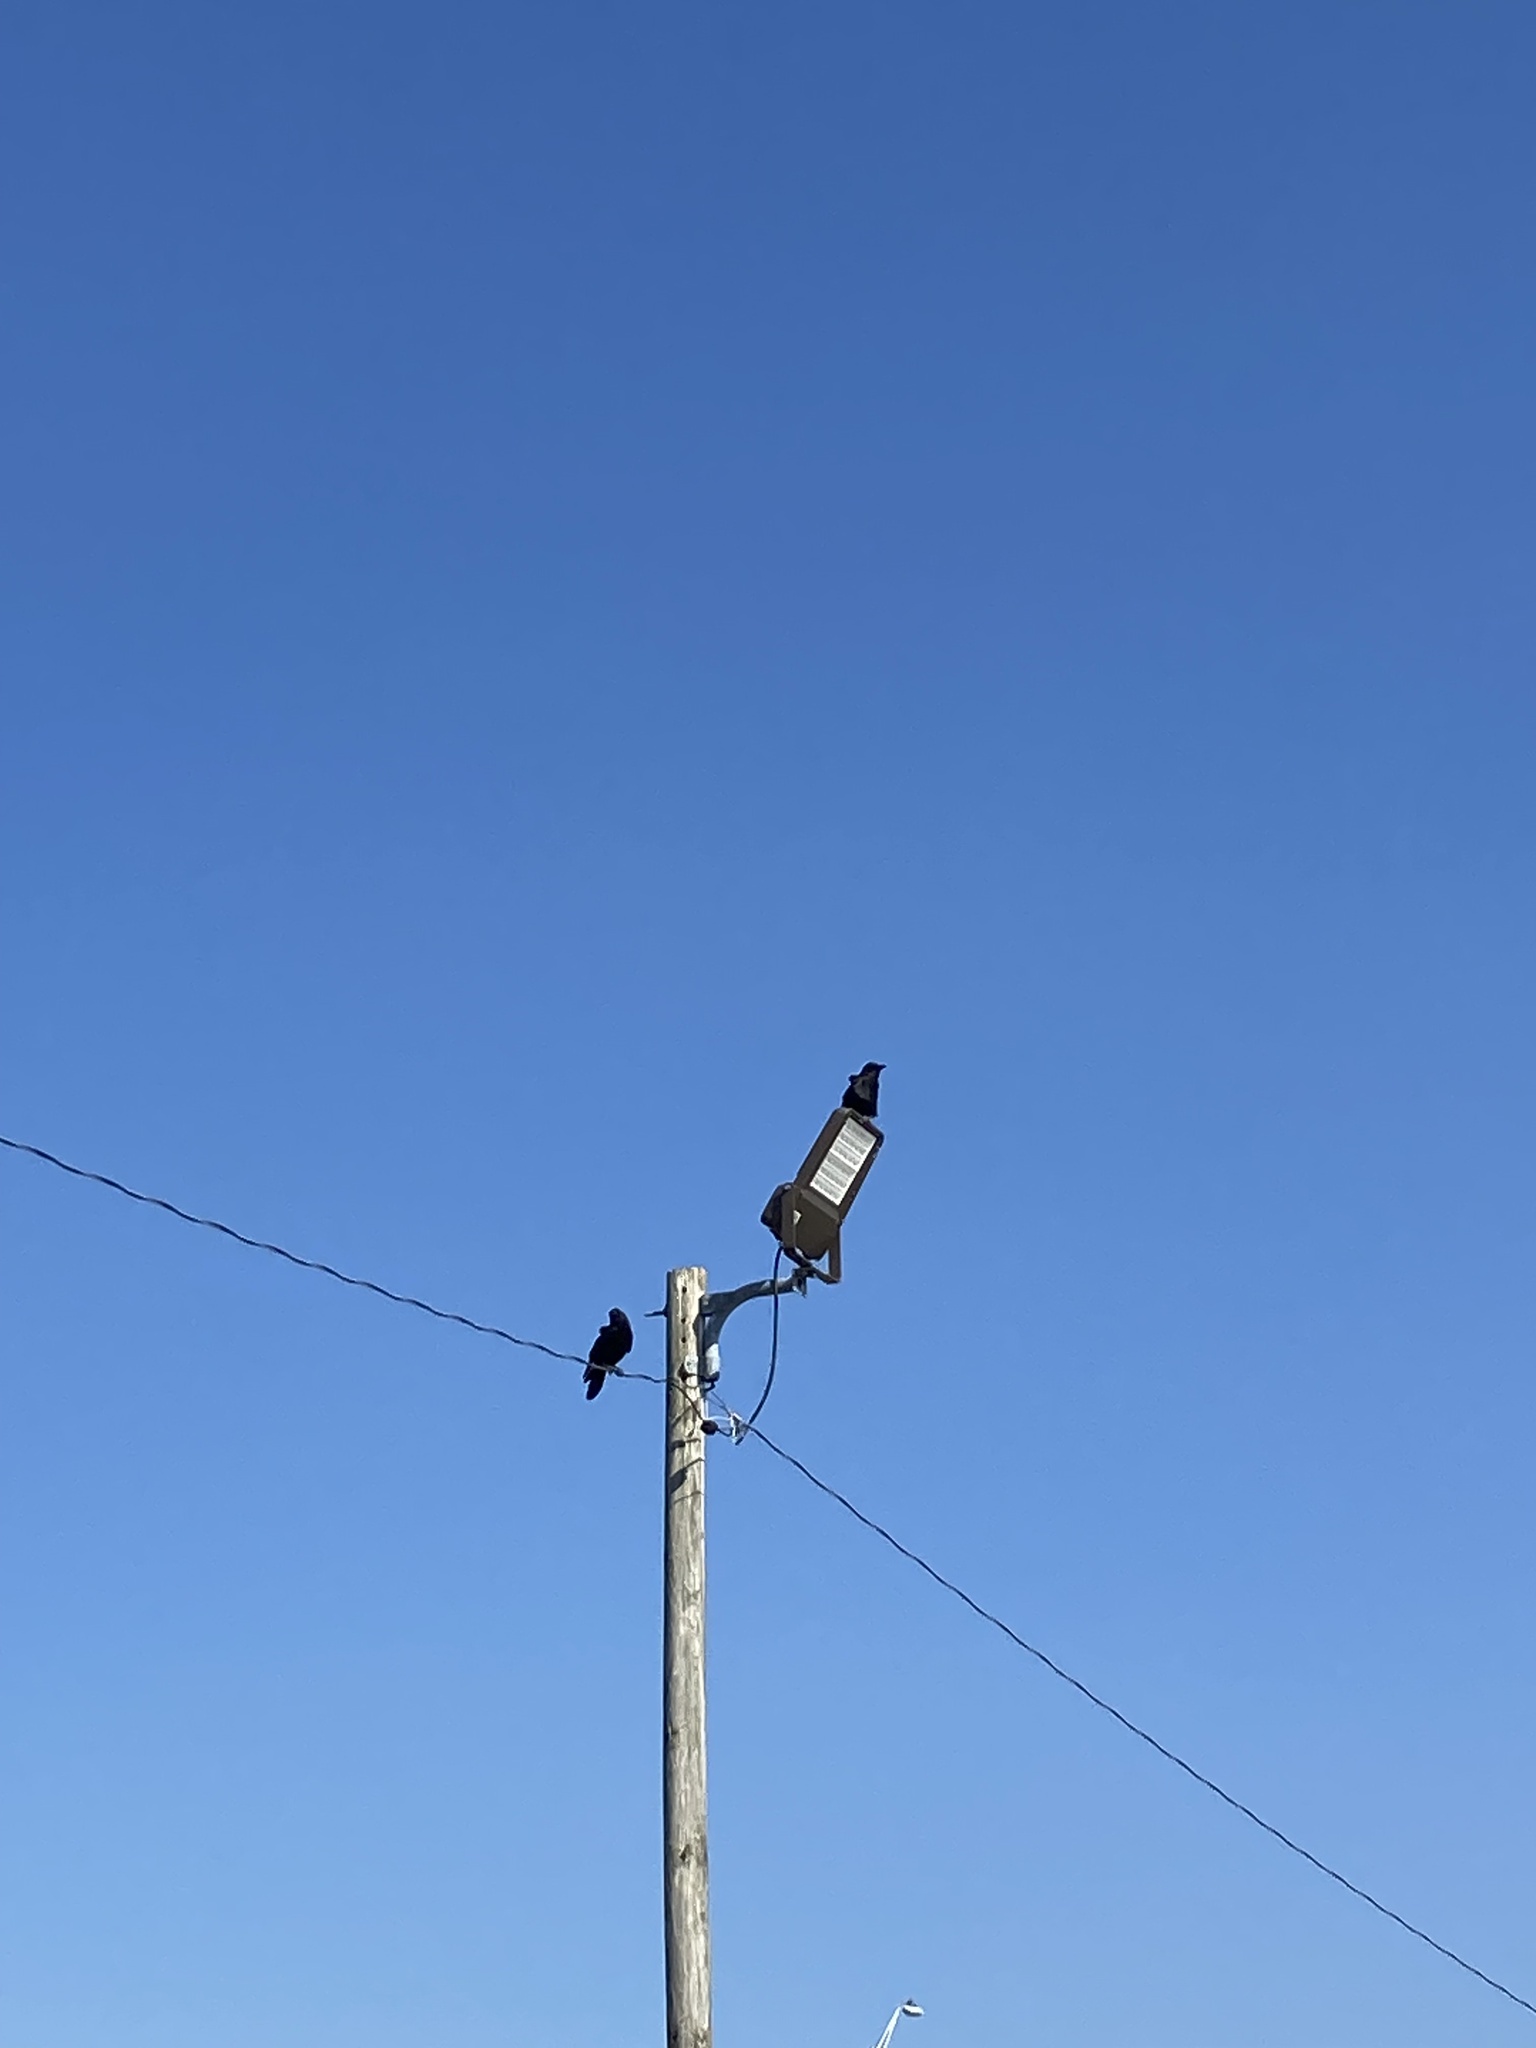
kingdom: Animalia
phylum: Chordata
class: Aves
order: Passeriformes
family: Corvidae
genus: Corvus
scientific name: Corvus brachyrhynchos
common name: American crow
